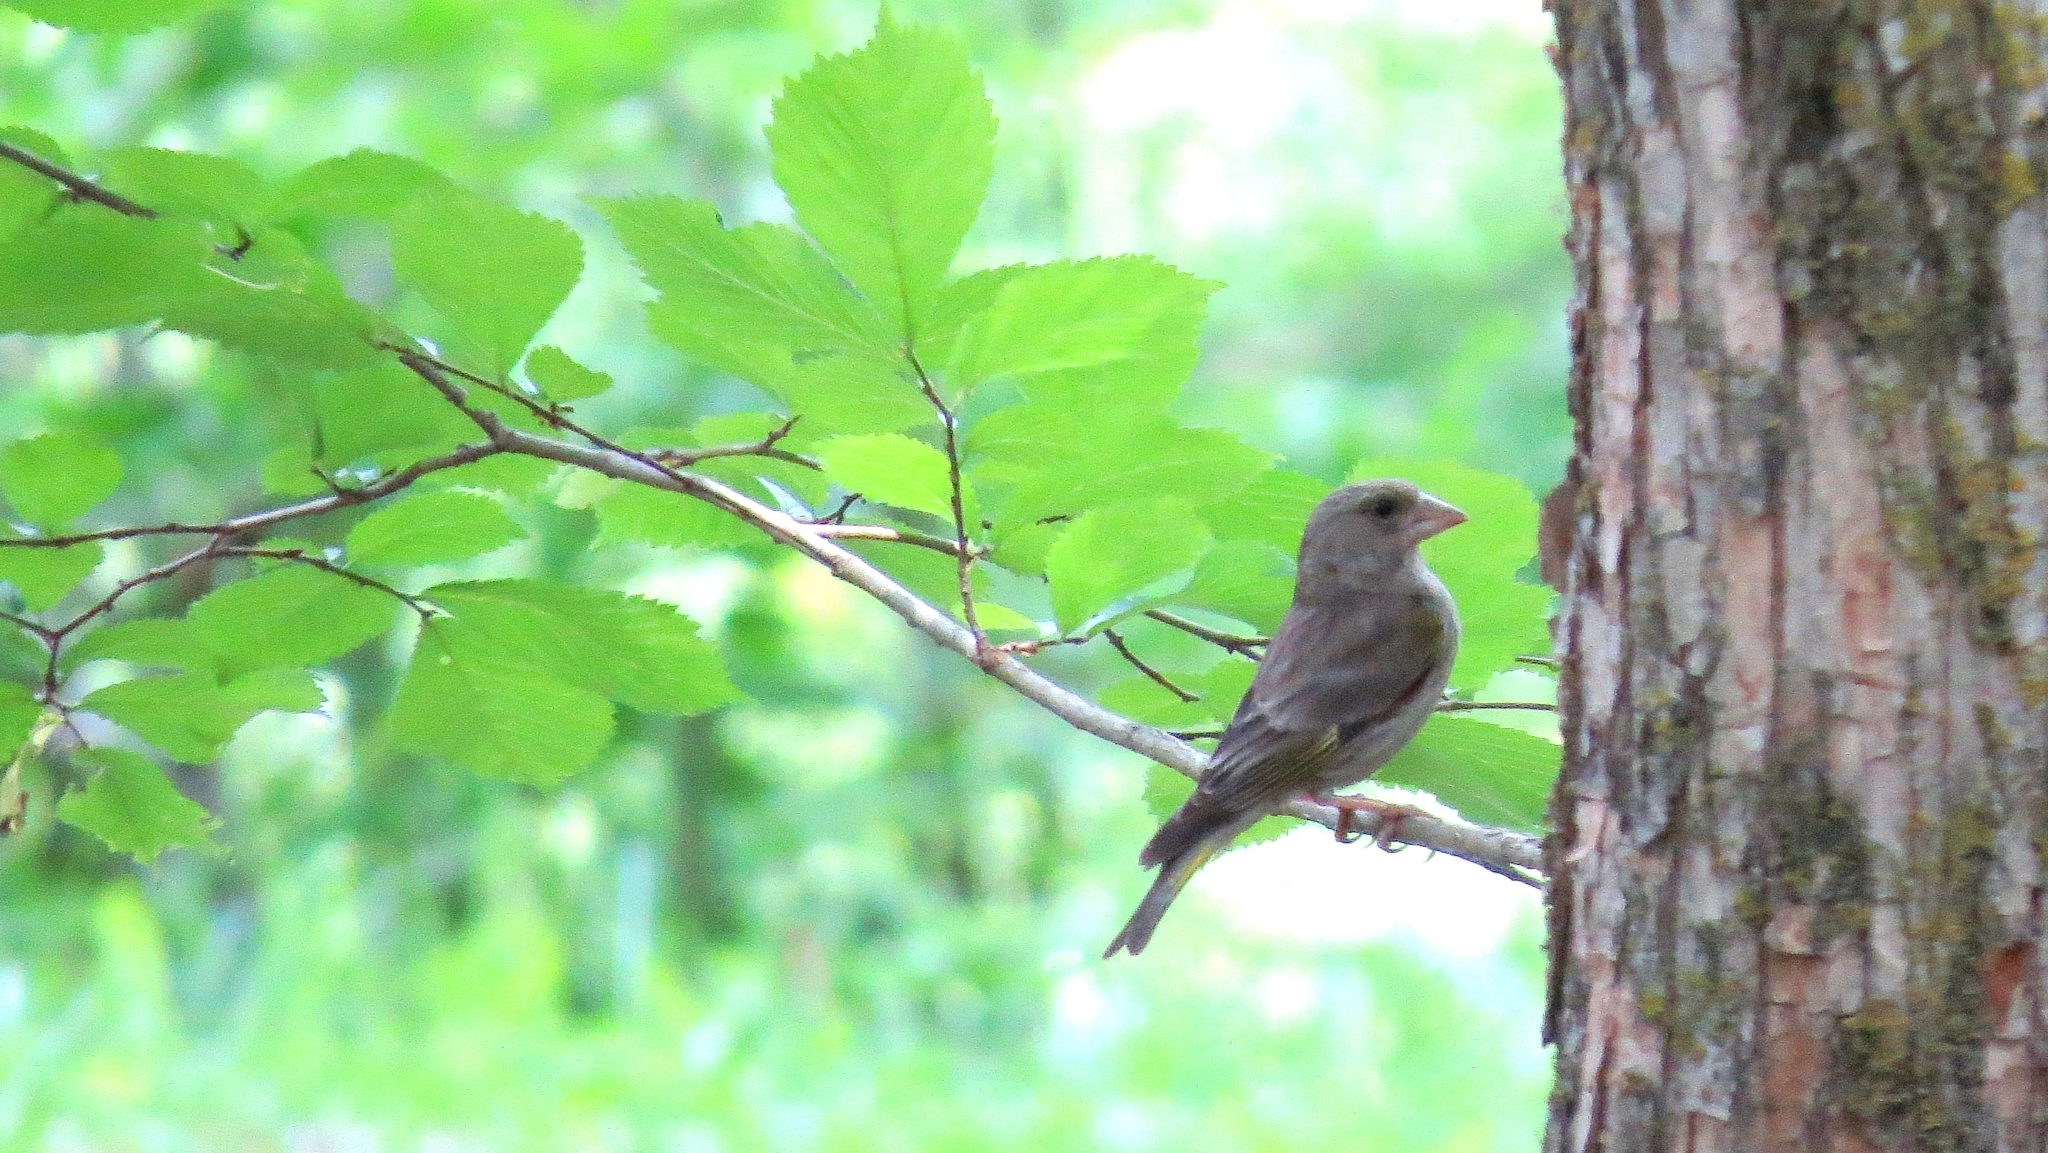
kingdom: Plantae
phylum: Tracheophyta
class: Liliopsida
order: Poales
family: Poaceae
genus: Chloris
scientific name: Chloris chloris
